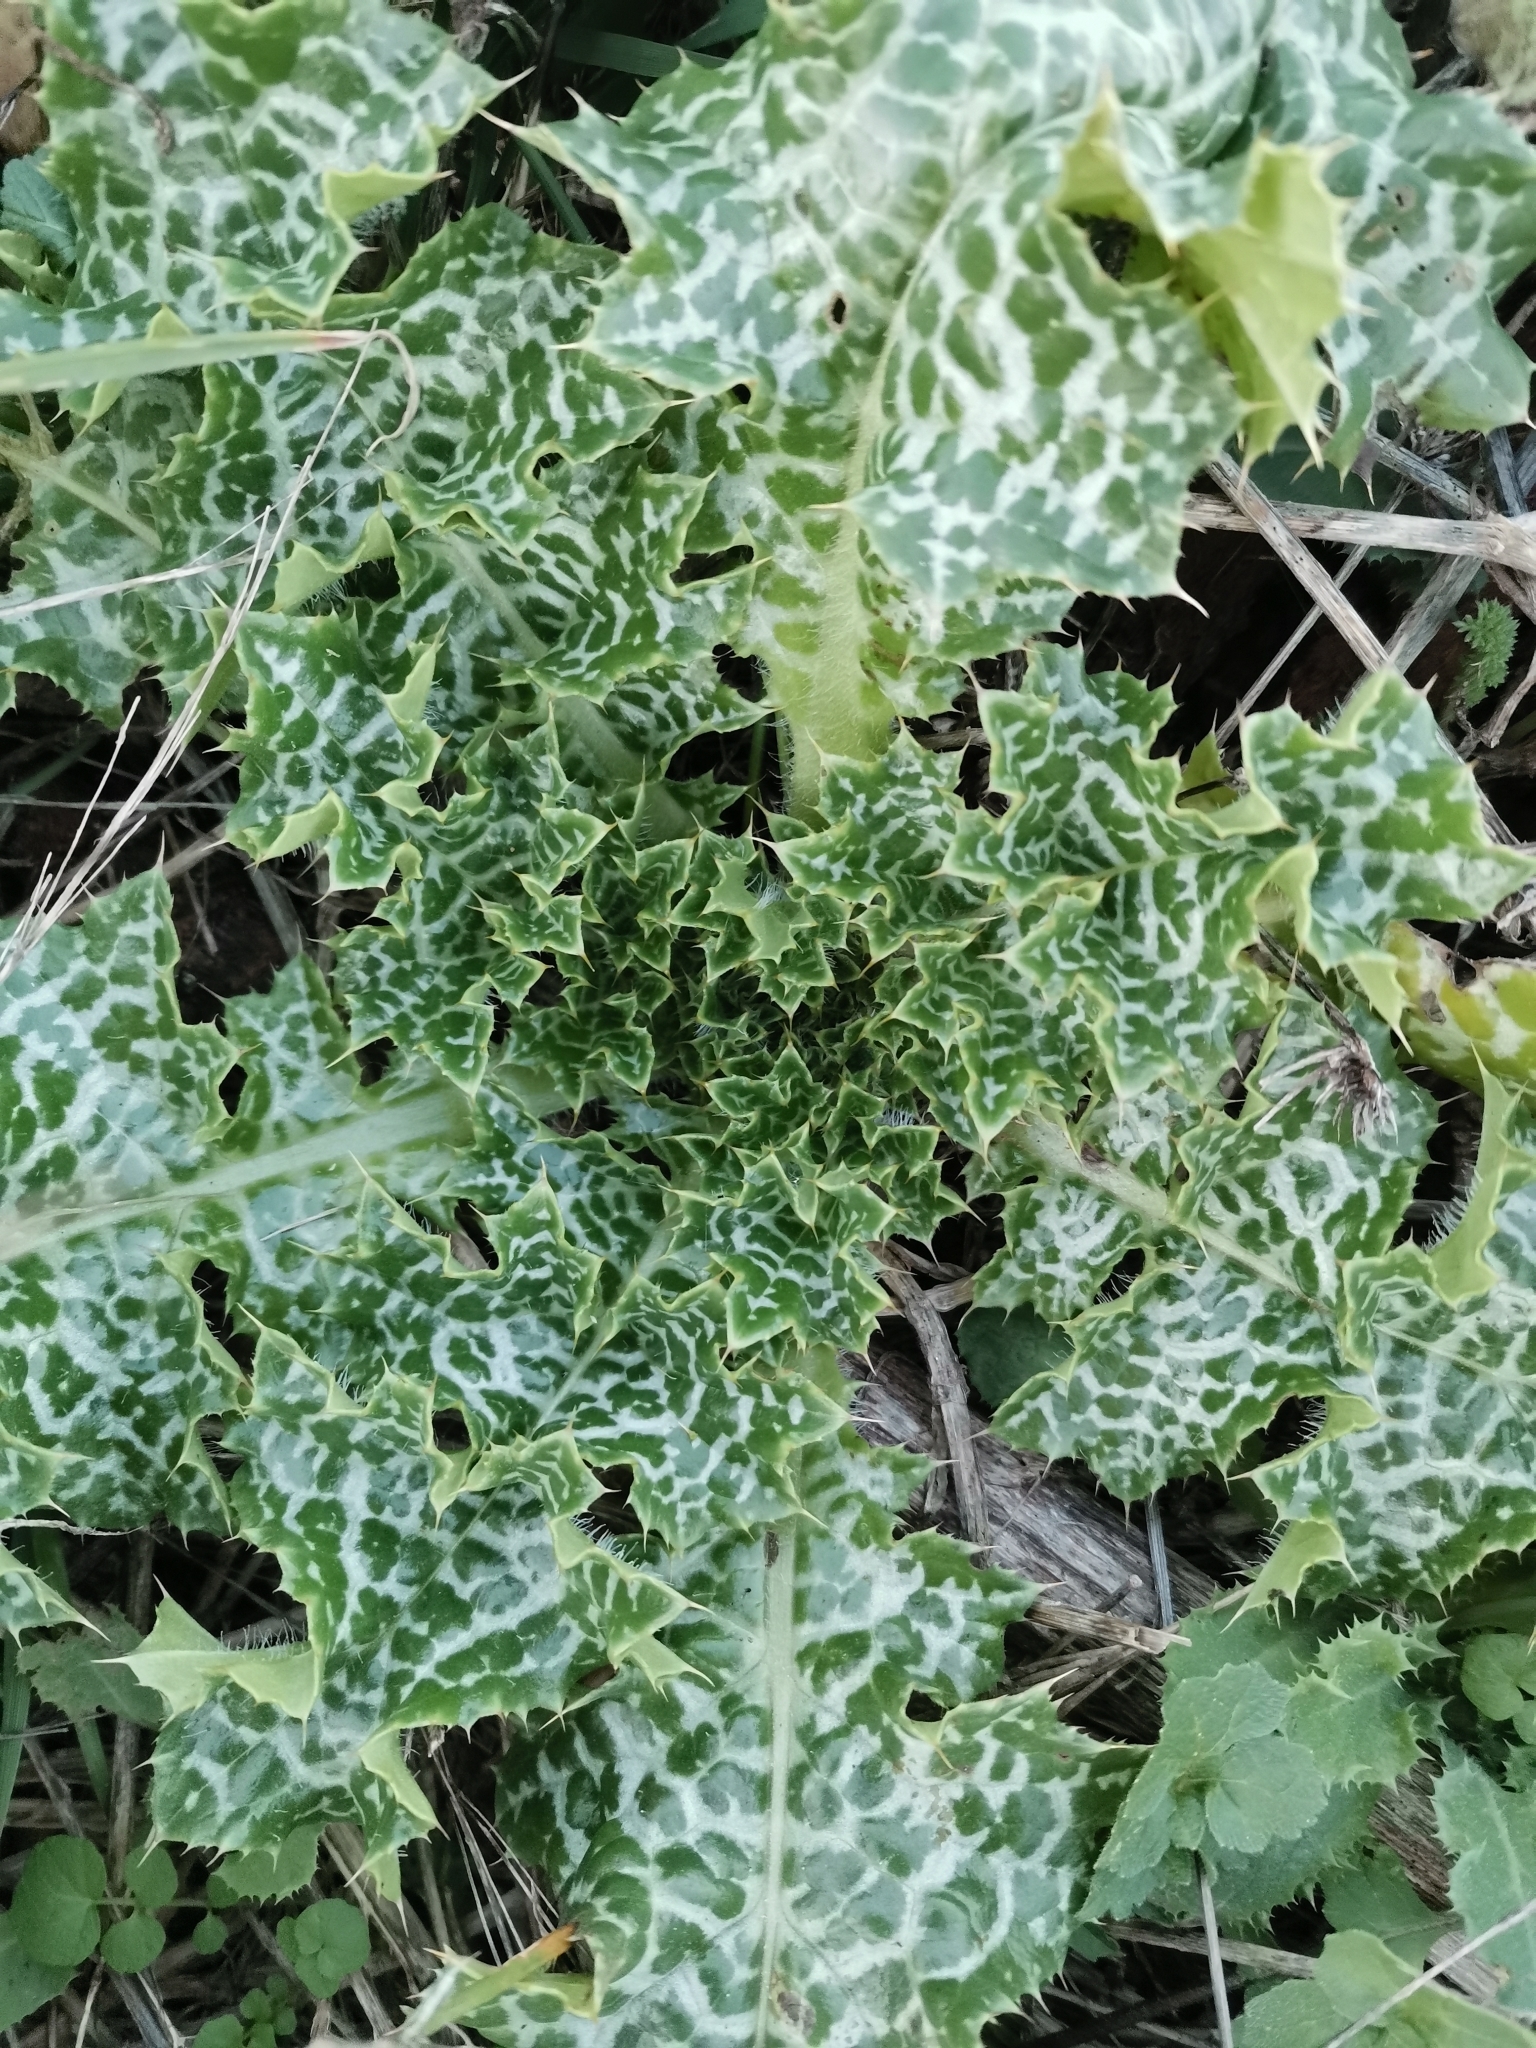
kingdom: Plantae
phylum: Tracheophyta
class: Magnoliopsida
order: Asterales
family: Asteraceae
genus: Silybum
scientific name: Silybum marianum
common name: Milk thistle
